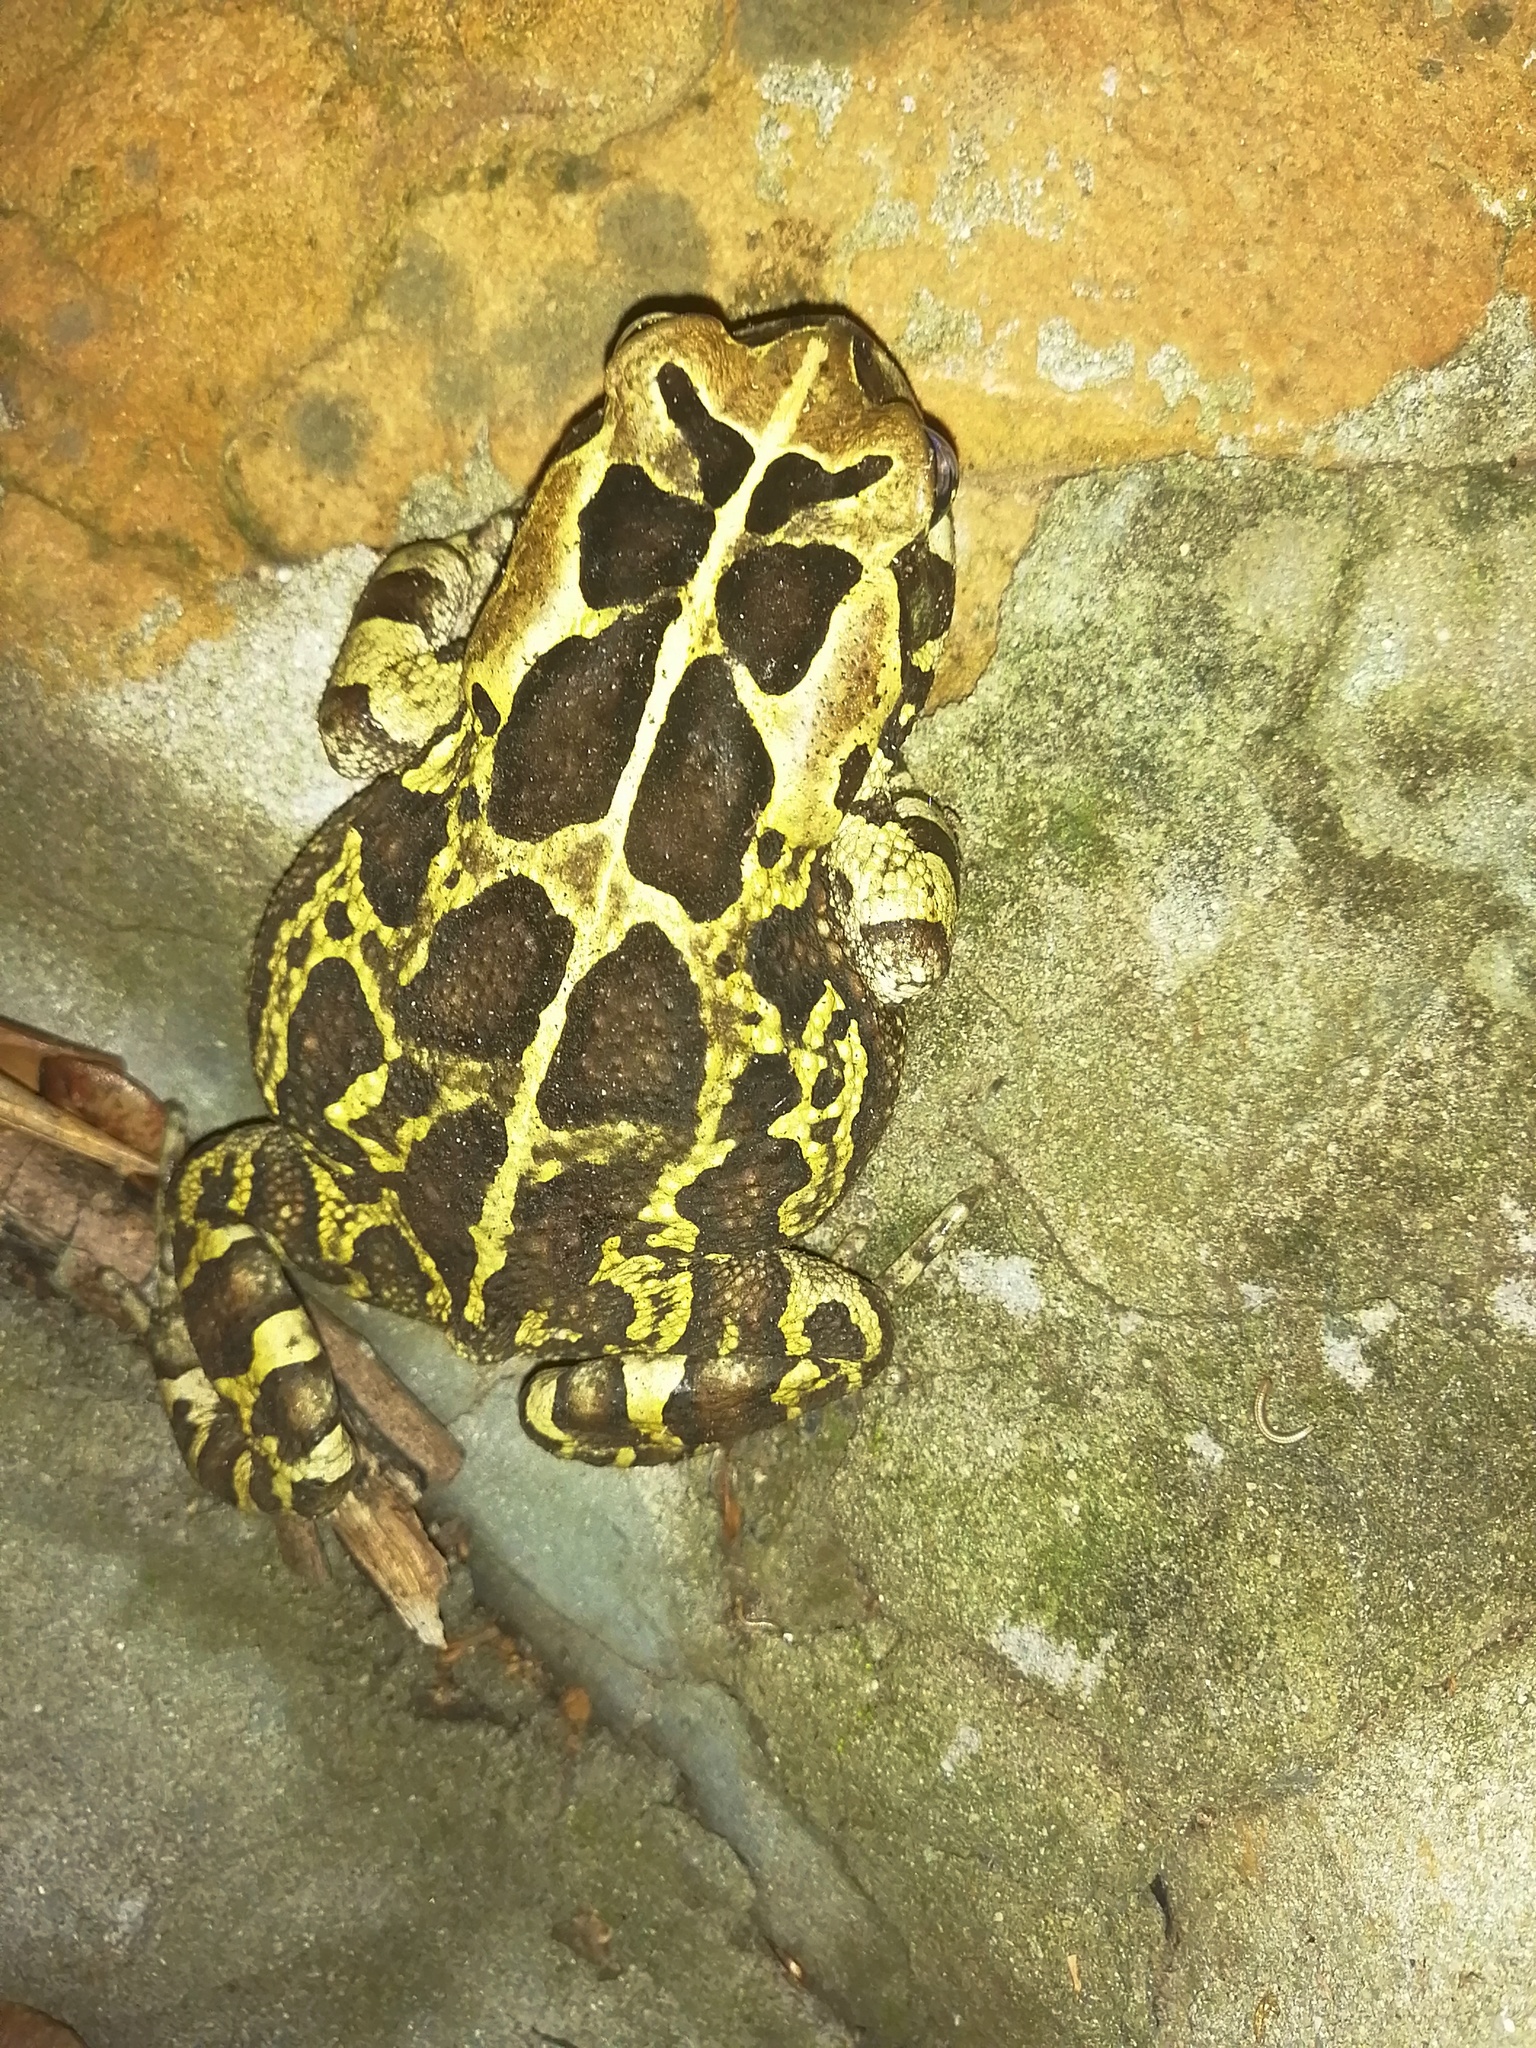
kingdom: Animalia
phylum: Chordata
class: Amphibia
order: Anura
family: Bufonidae
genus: Sclerophrys
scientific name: Sclerophrys pantherina
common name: Panther toad
